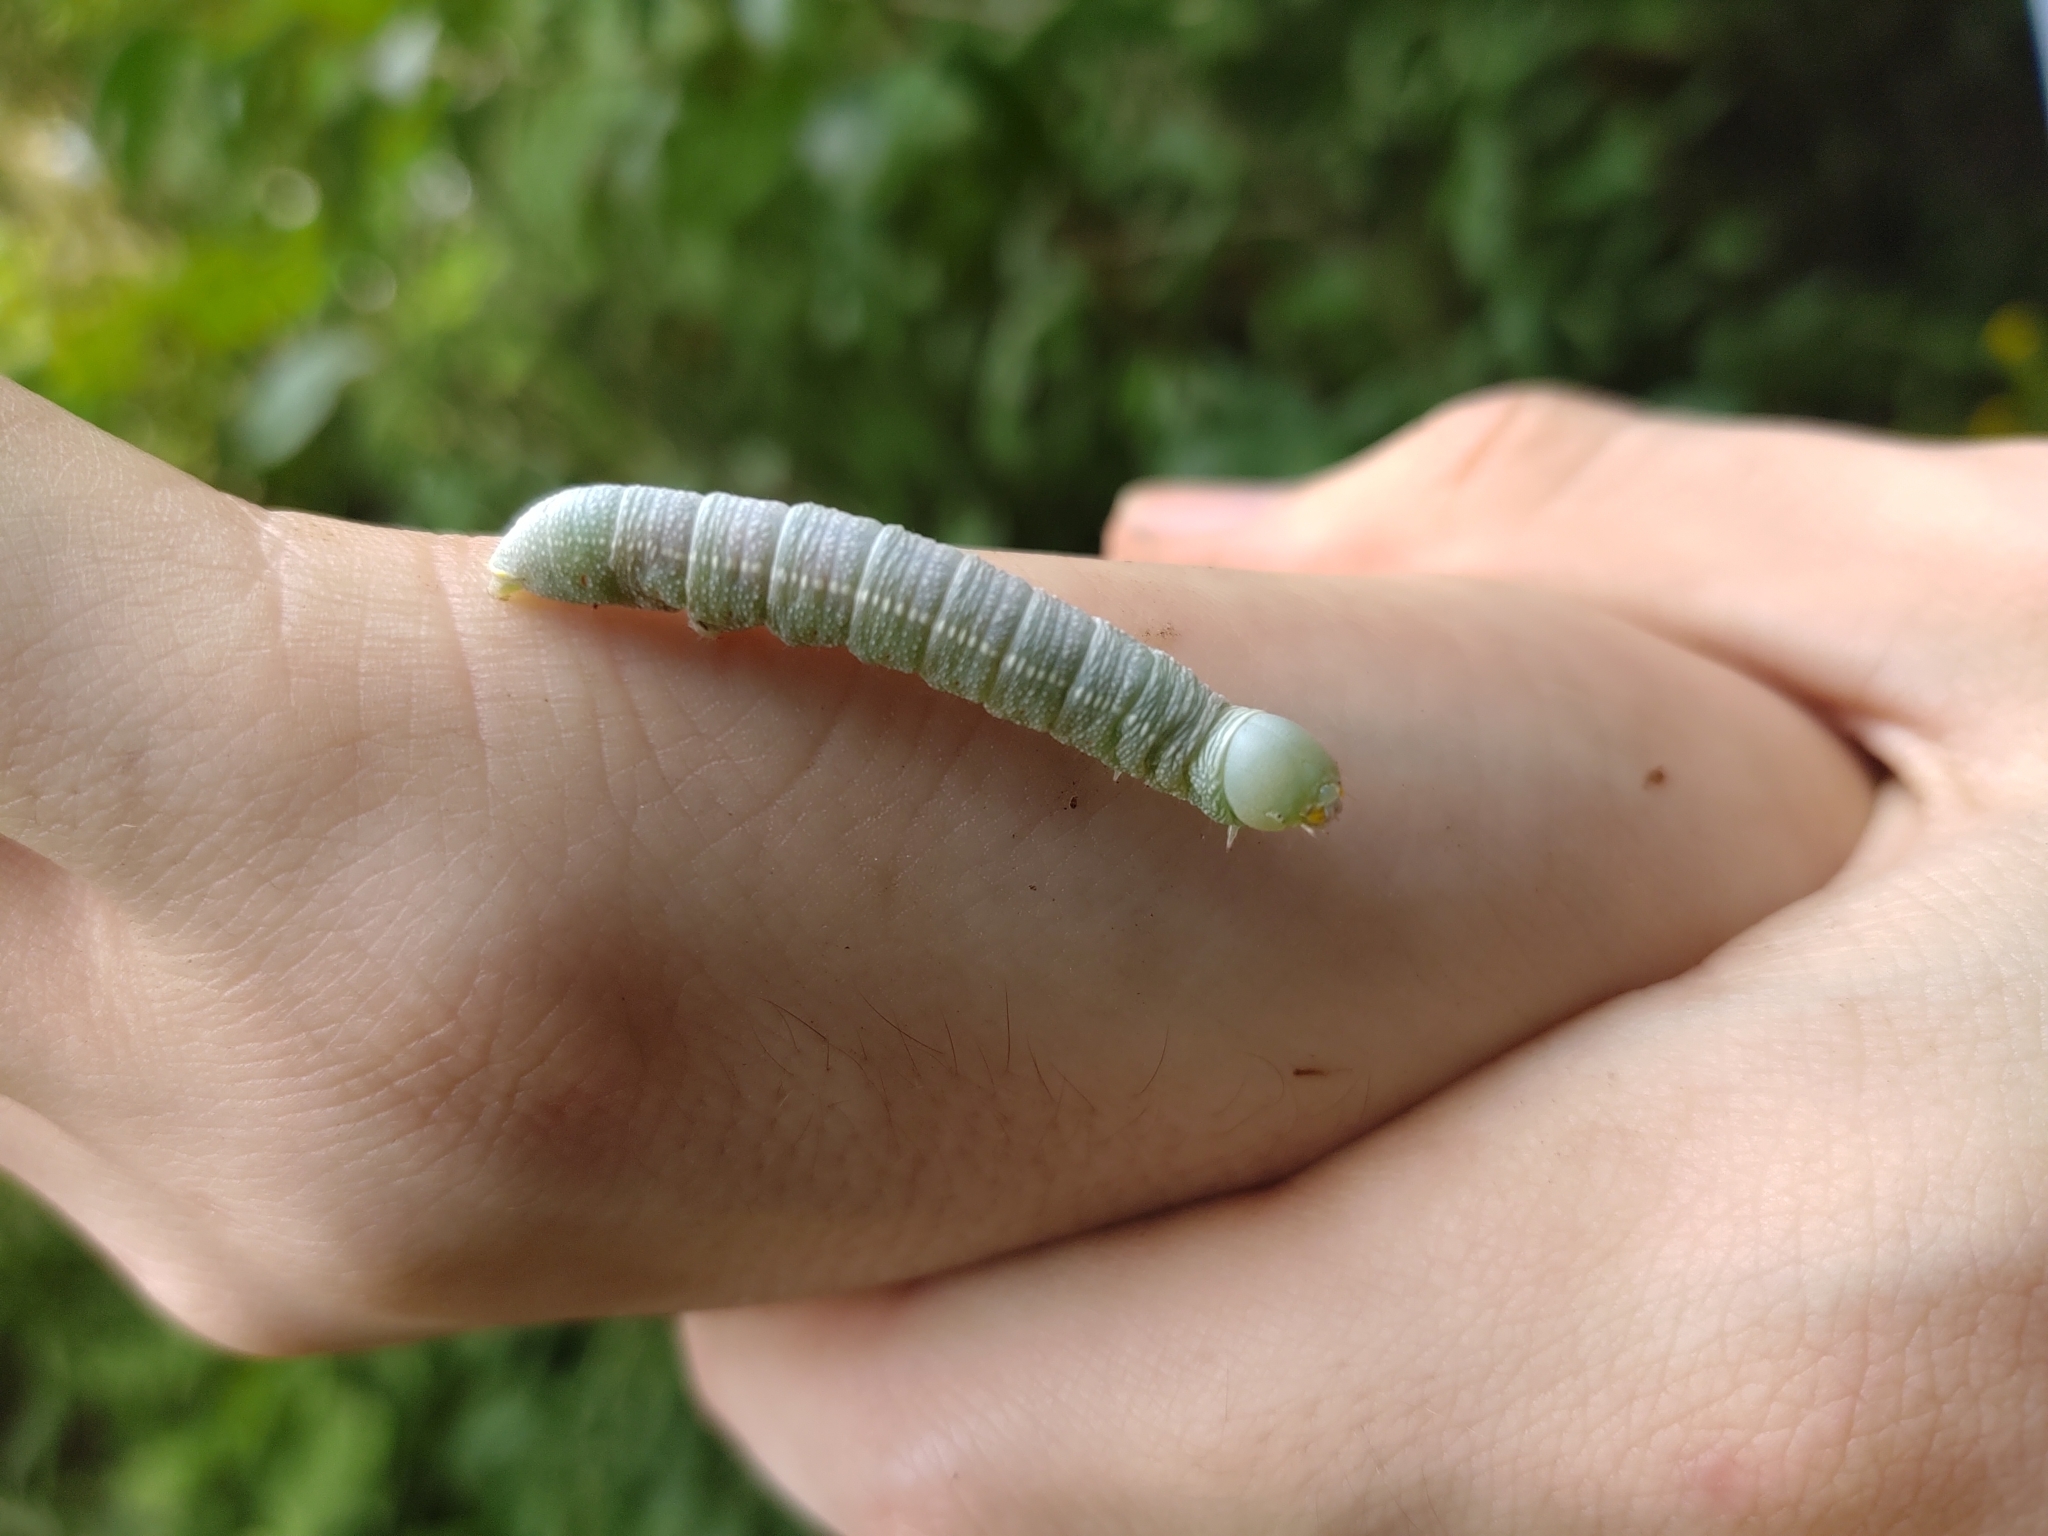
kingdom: Animalia
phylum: Arthropoda
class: Insecta
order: Lepidoptera
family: Notodontidae
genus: Nadata
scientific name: Nadata gibbosa
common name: White-dotted prominent
